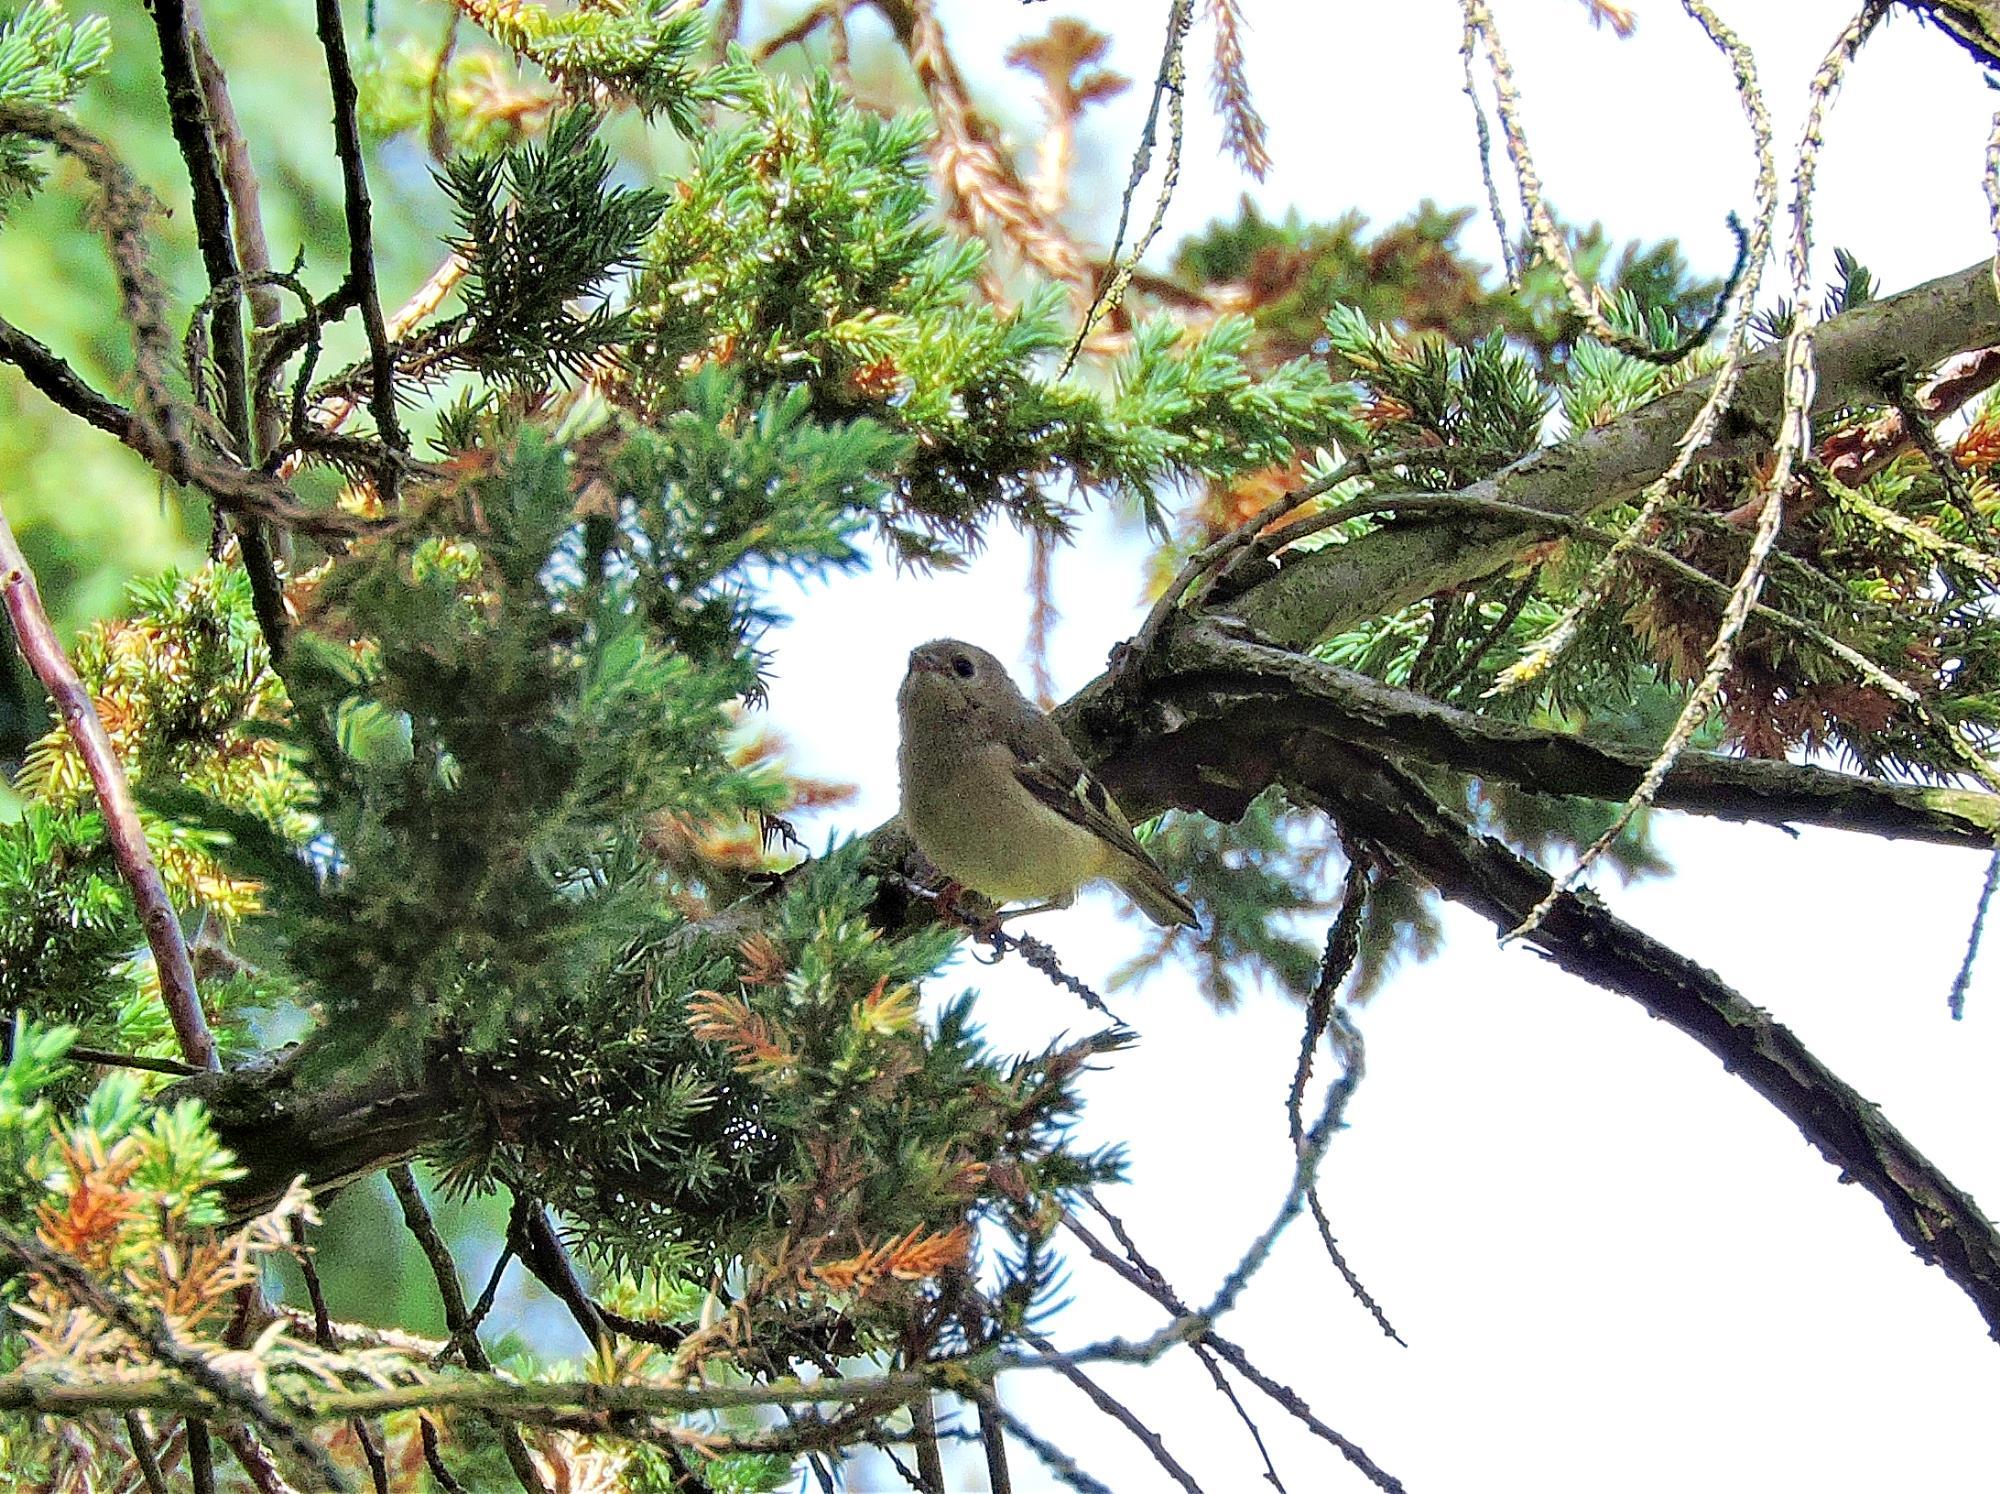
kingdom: Animalia
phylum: Chordata
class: Aves
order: Passeriformes
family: Regulidae
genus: Regulus
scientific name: Regulus regulus
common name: Goldcrest
